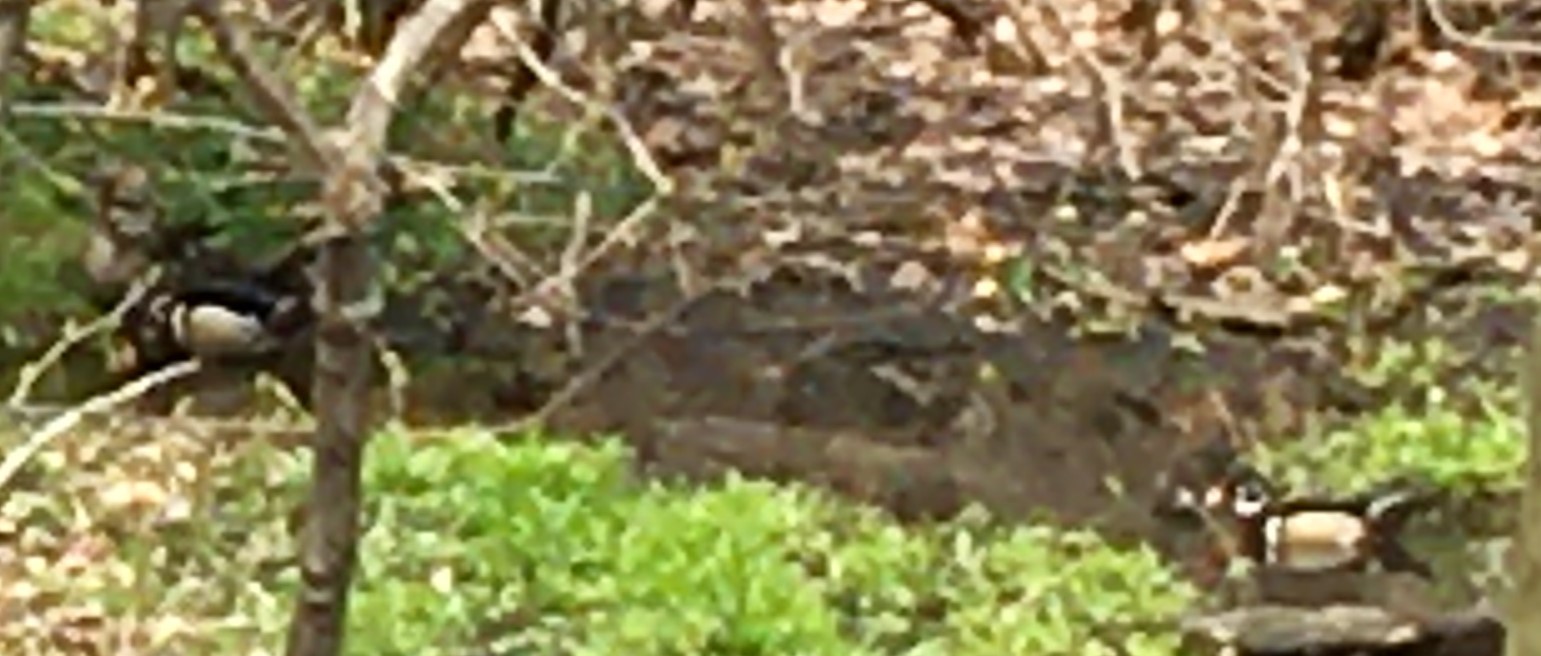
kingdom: Animalia
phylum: Chordata
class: Aves
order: Anseriformes
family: Anatidae
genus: Aix
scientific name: Aix sponsa
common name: Wood duck
